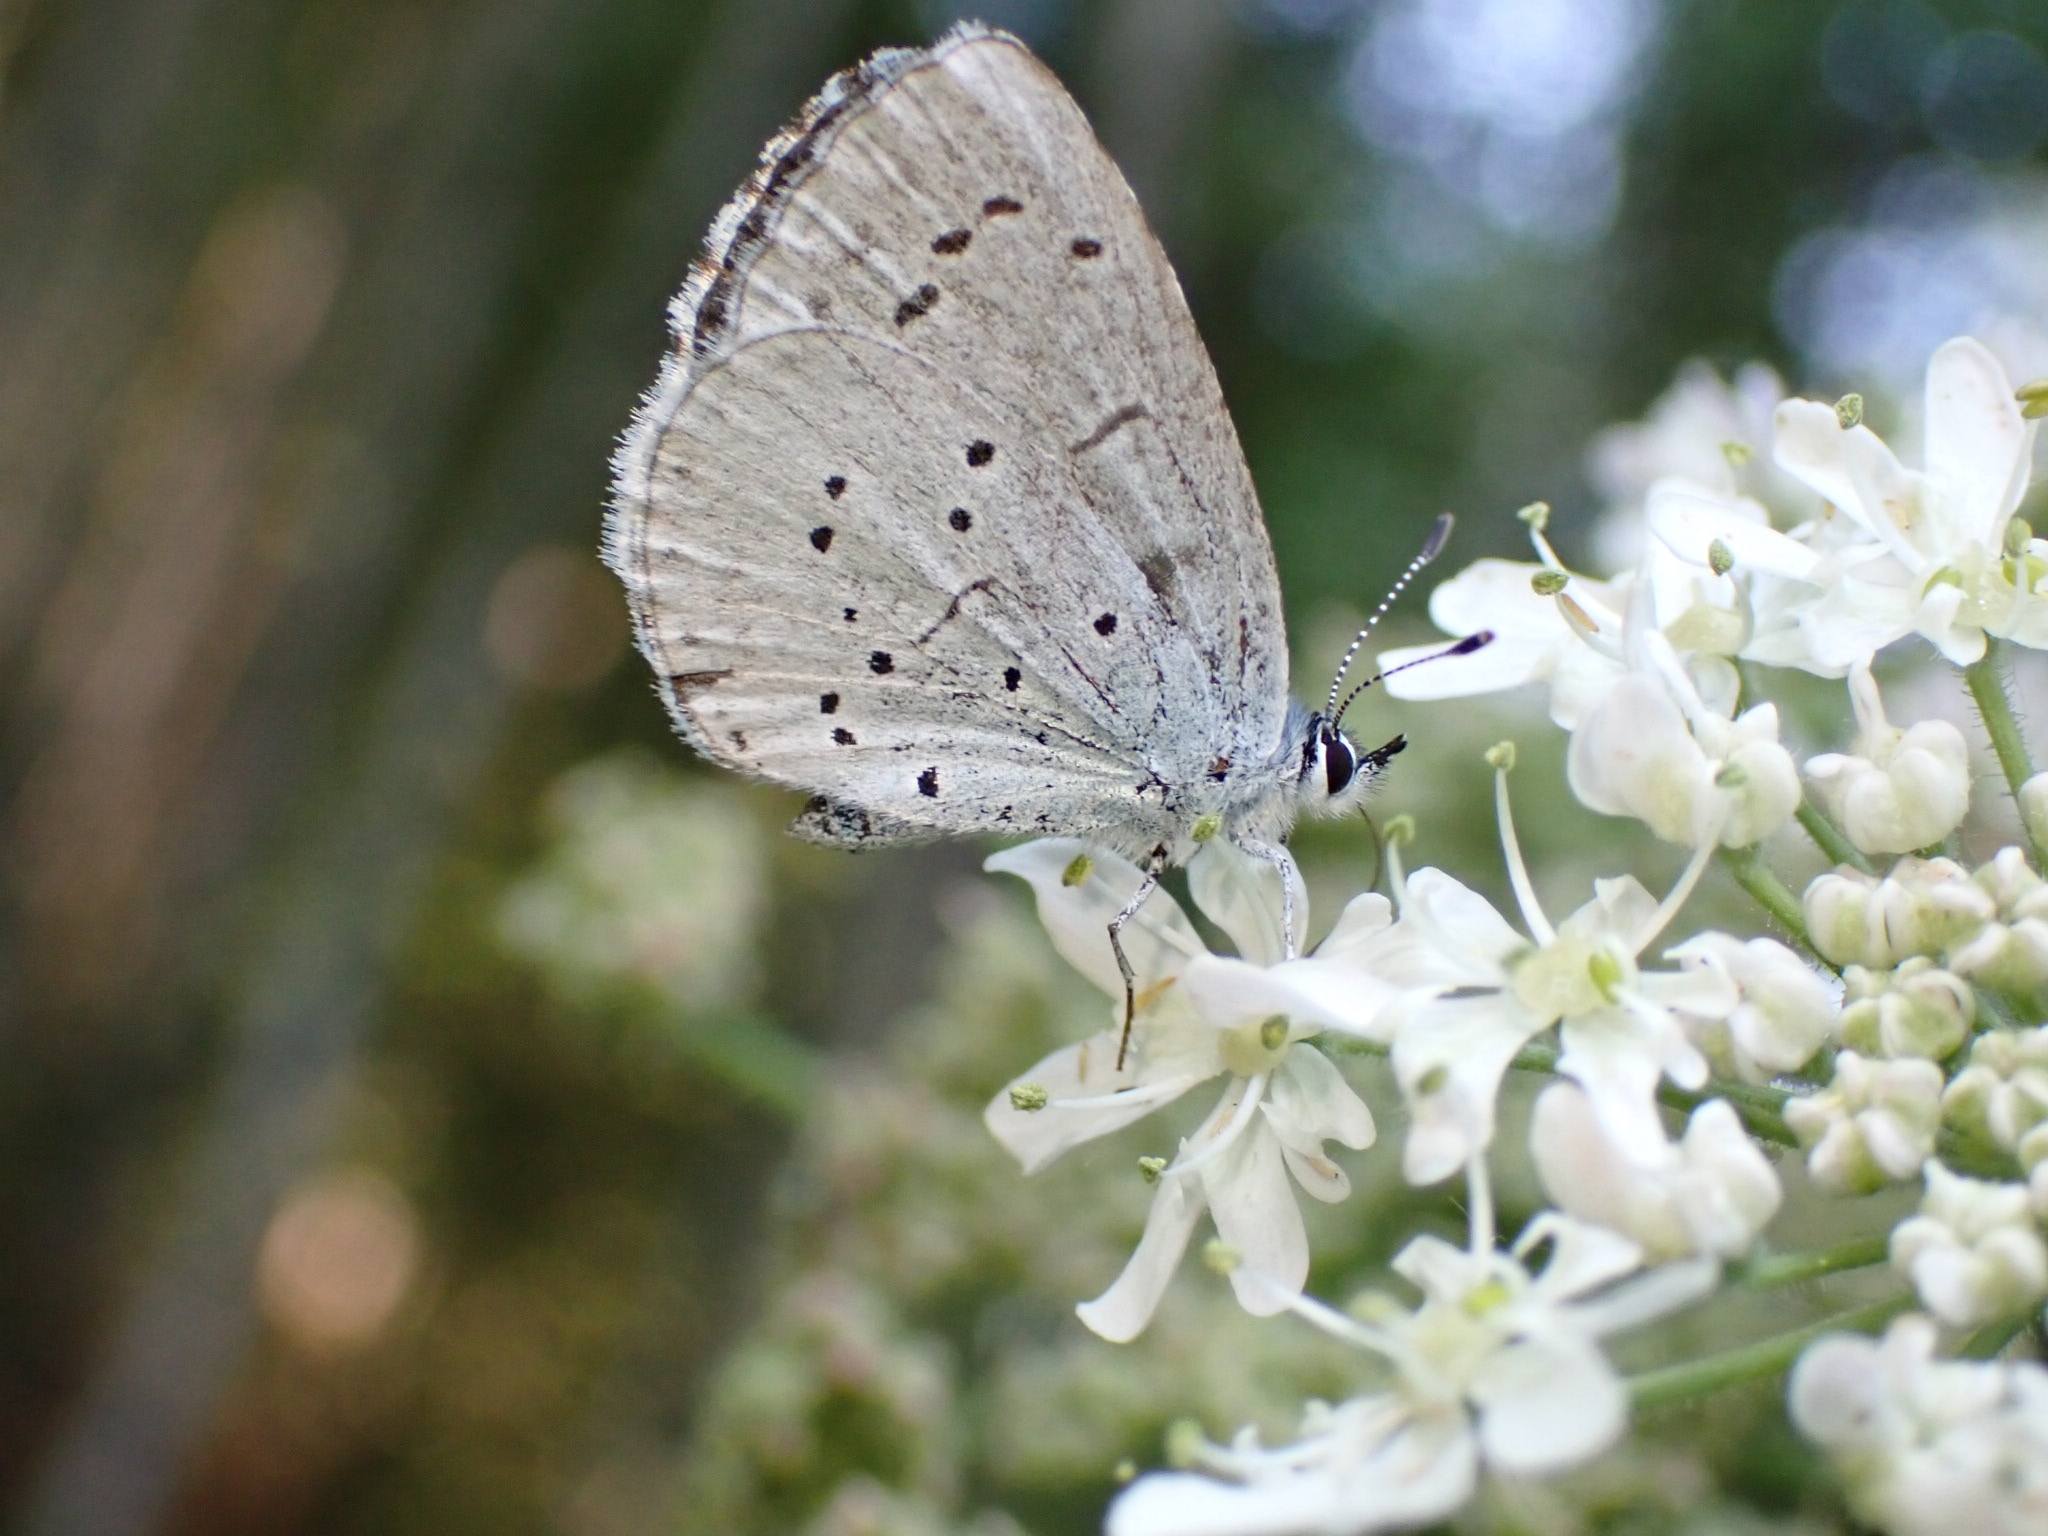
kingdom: Animalia
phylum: Arthropoda
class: Insecta
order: Lepidoptera
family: Lycaenidae
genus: Celastrina
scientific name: Celastrina argiolus
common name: Holly blue
